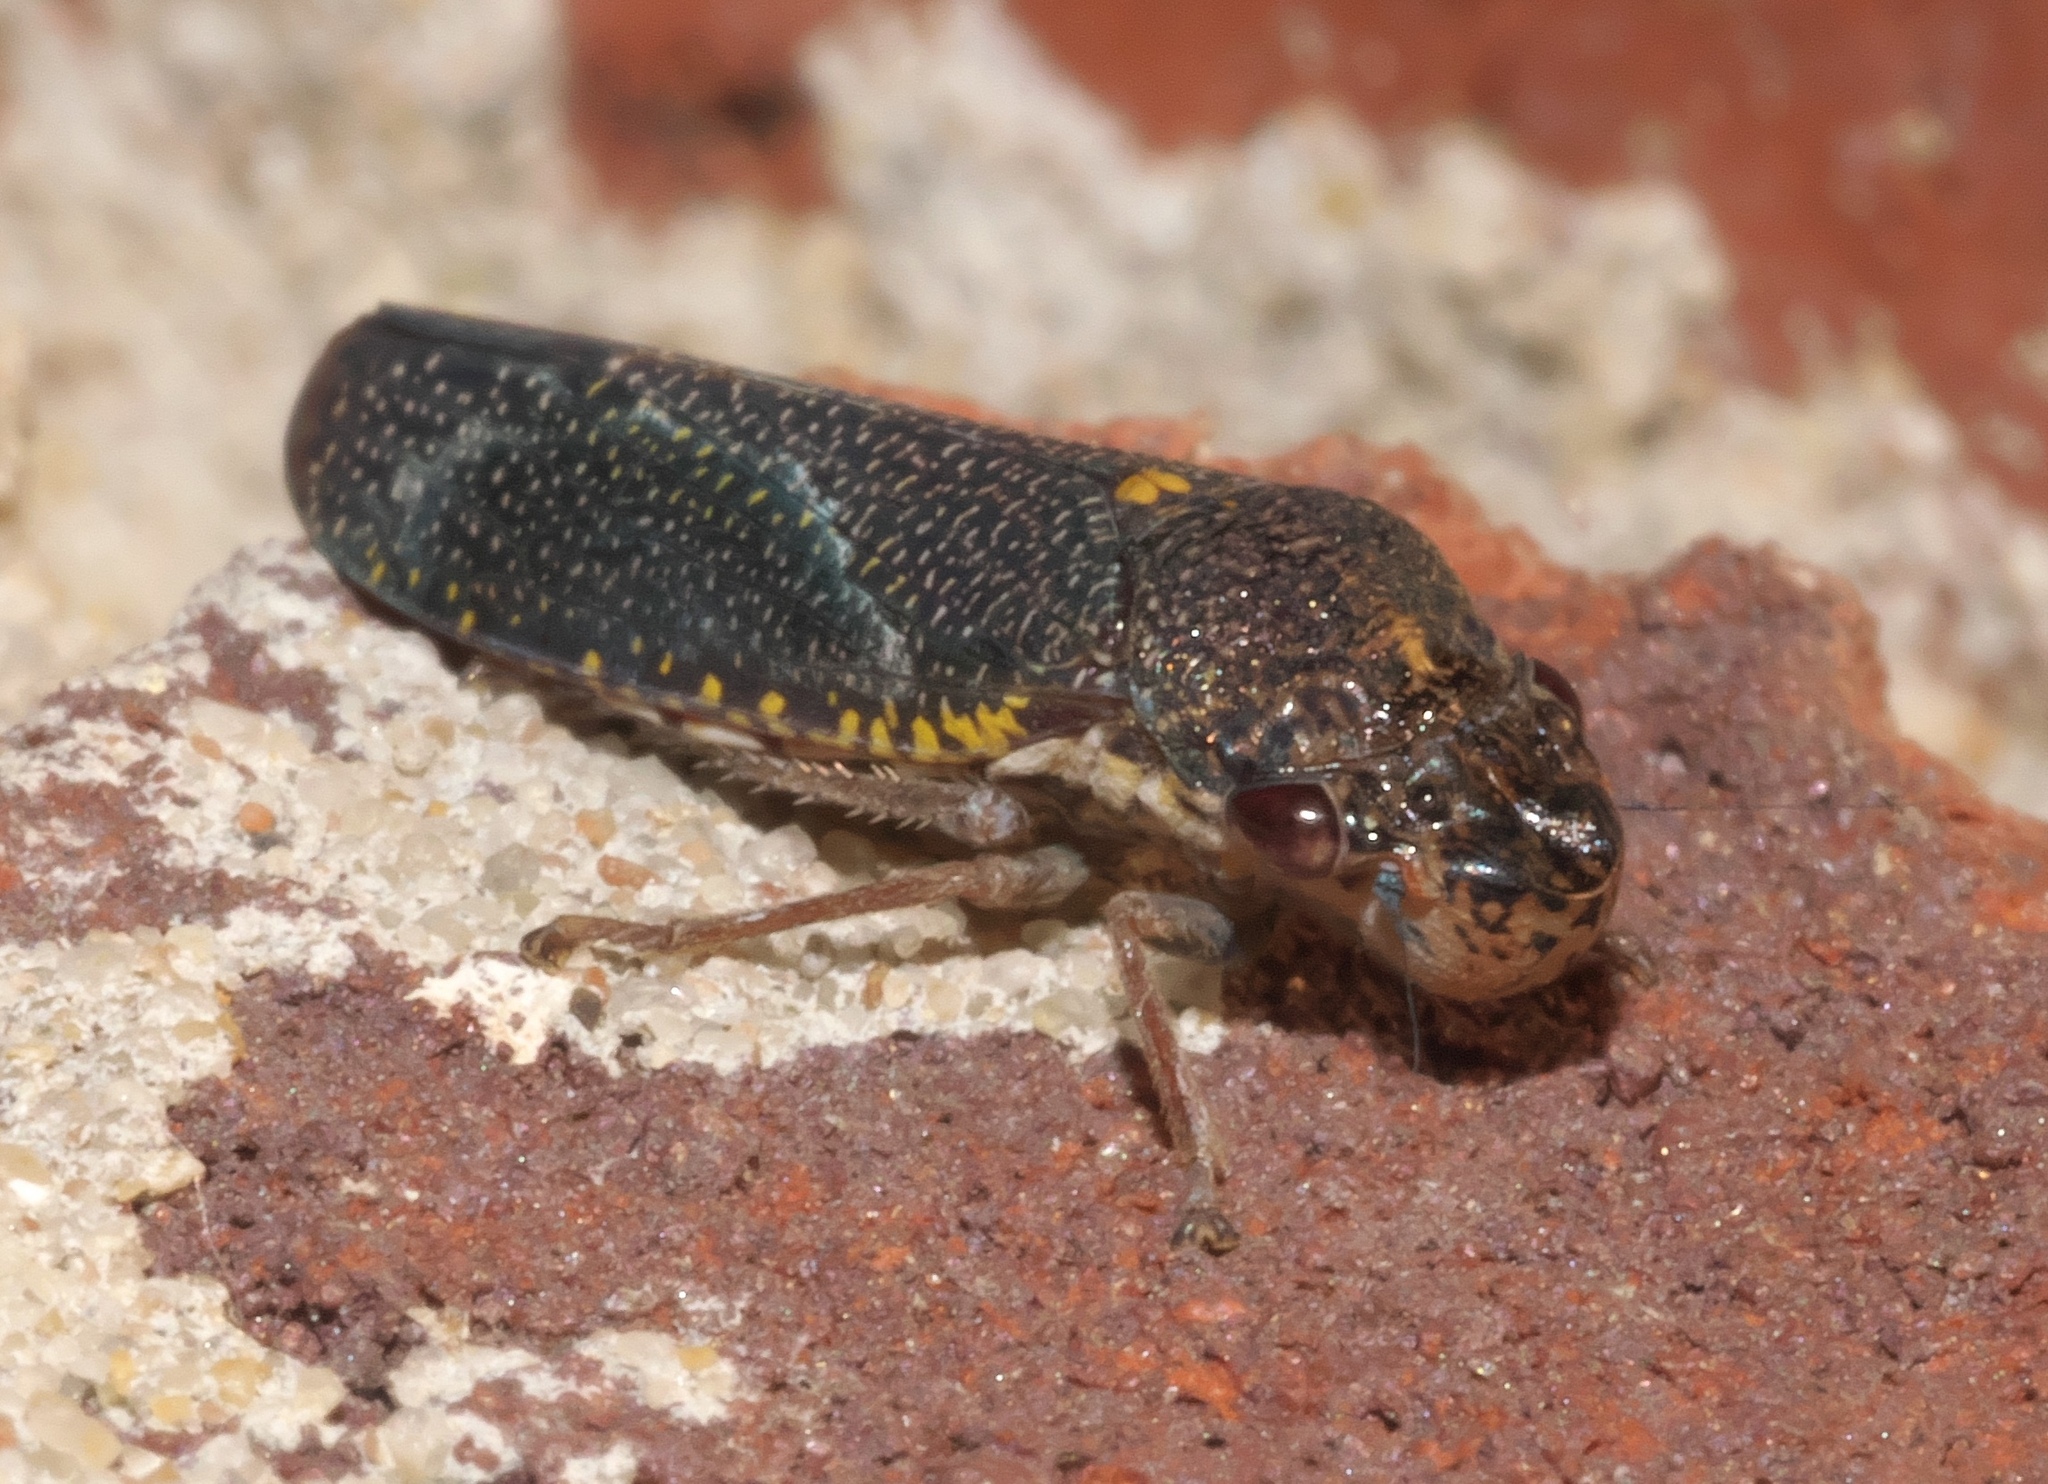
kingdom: Animalia
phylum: Arthropoda
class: Insecta
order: Hemiptera
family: Cicadellidae
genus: Paraulacizes
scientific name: Paraulacizes irrorata
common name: Speckled sharpshooter
